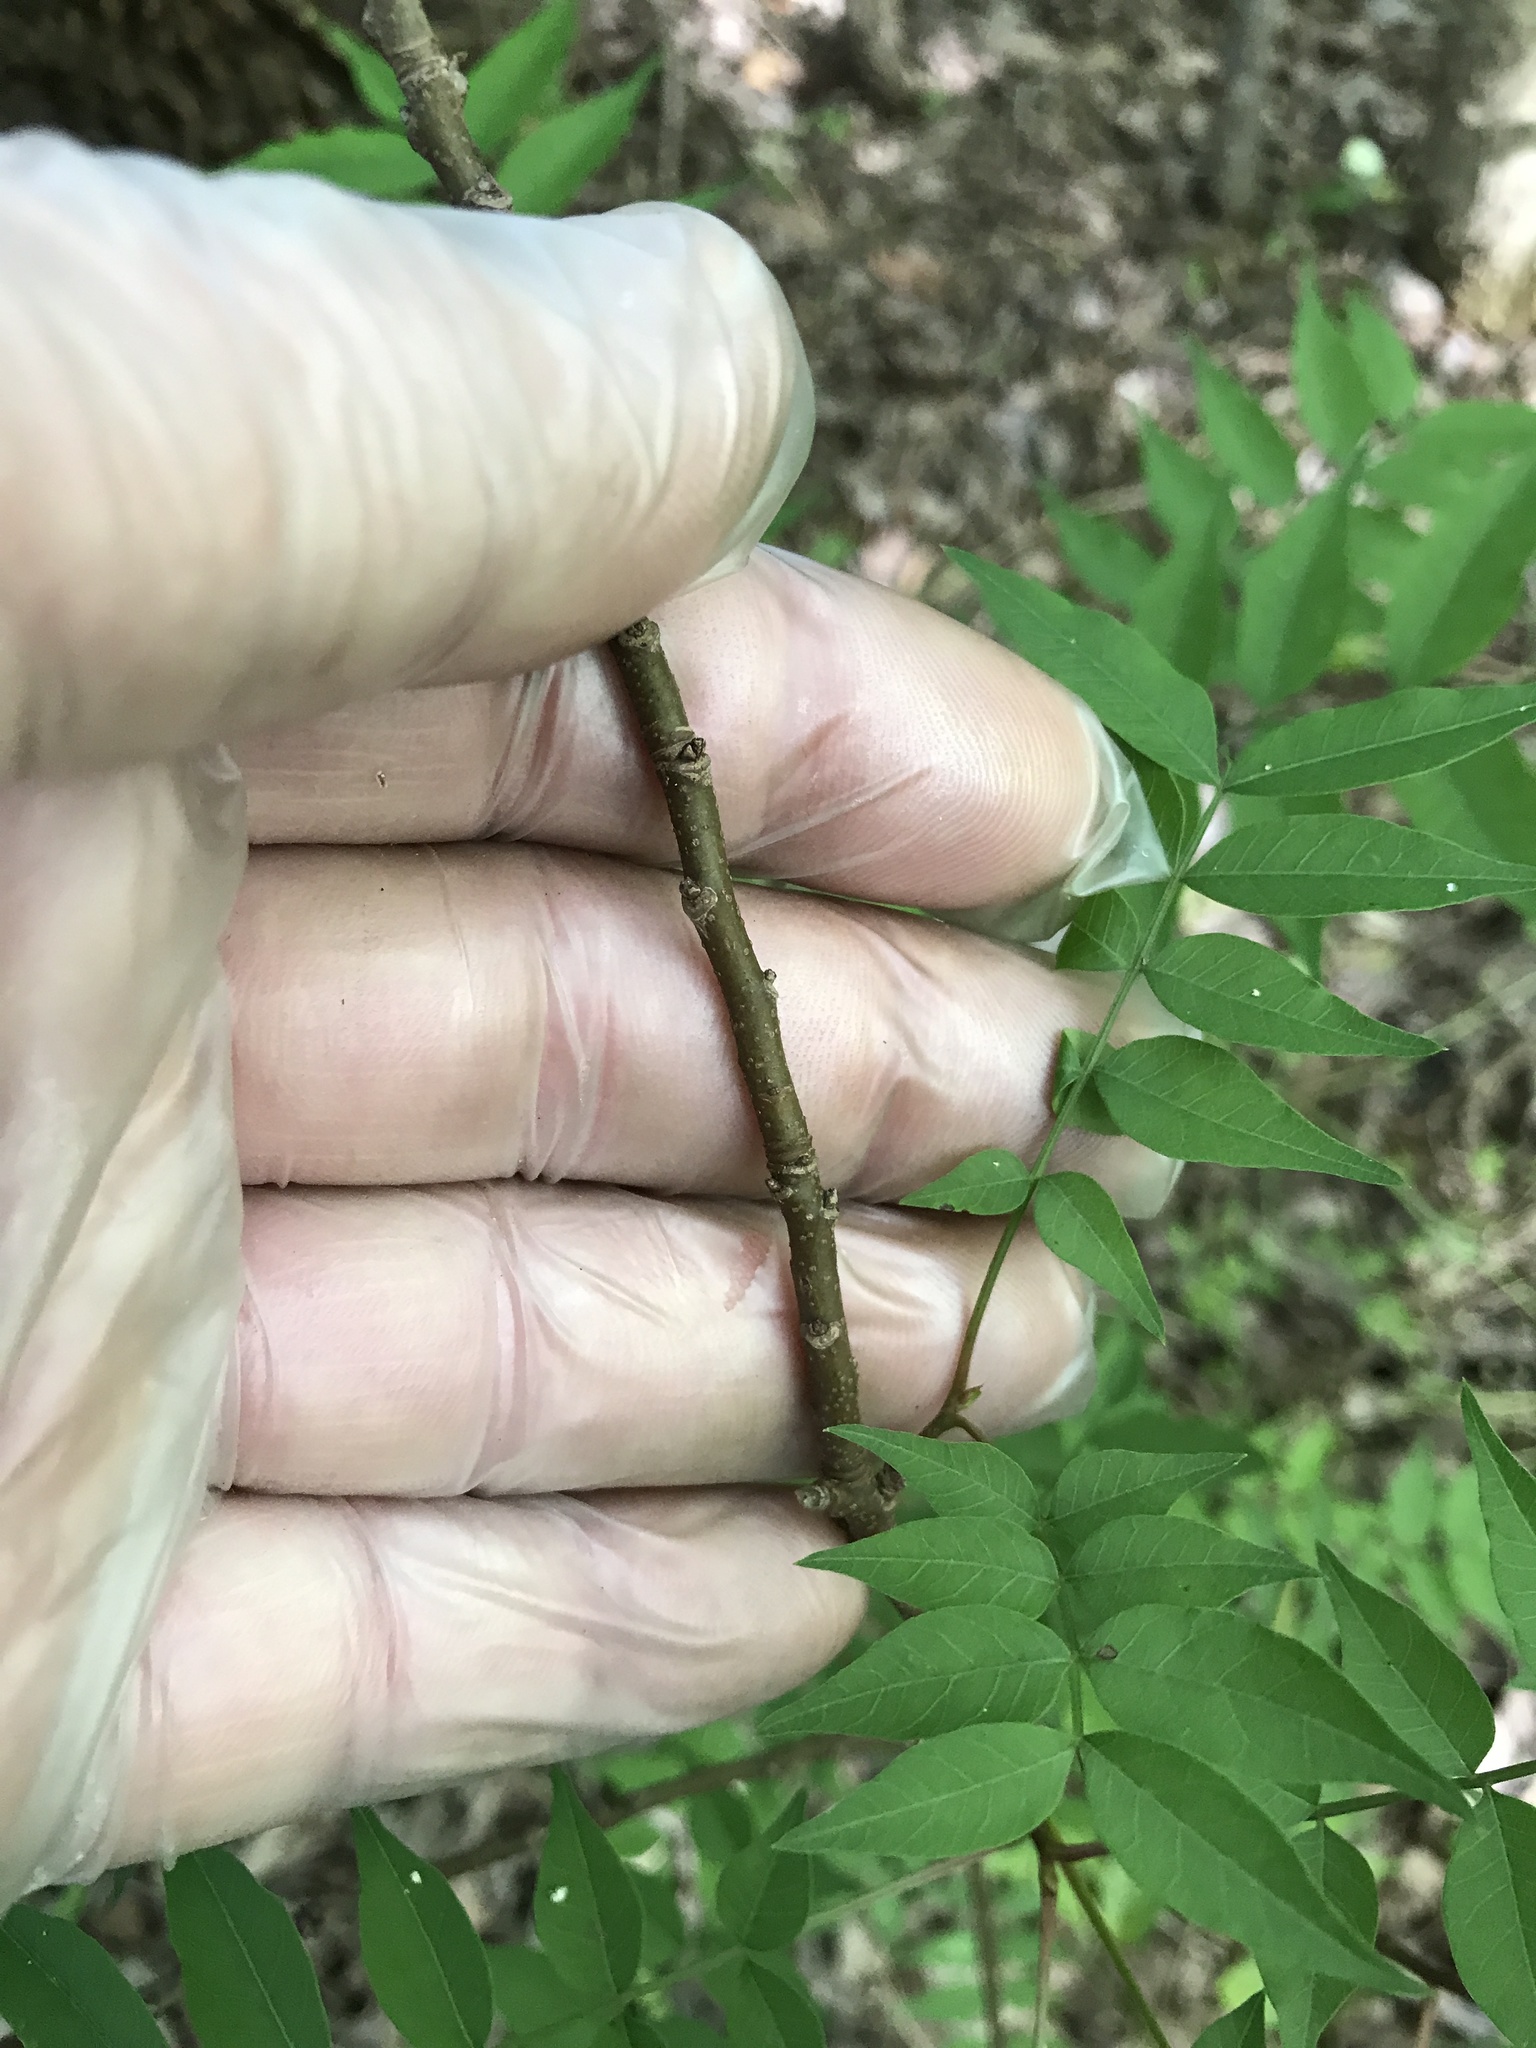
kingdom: Plantae
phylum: Tracheophyta
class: Magnoliopsida
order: Sapindales
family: Anacardiaceae
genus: Pistacia
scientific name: Pistacia chinensis
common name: Chinese pistache
